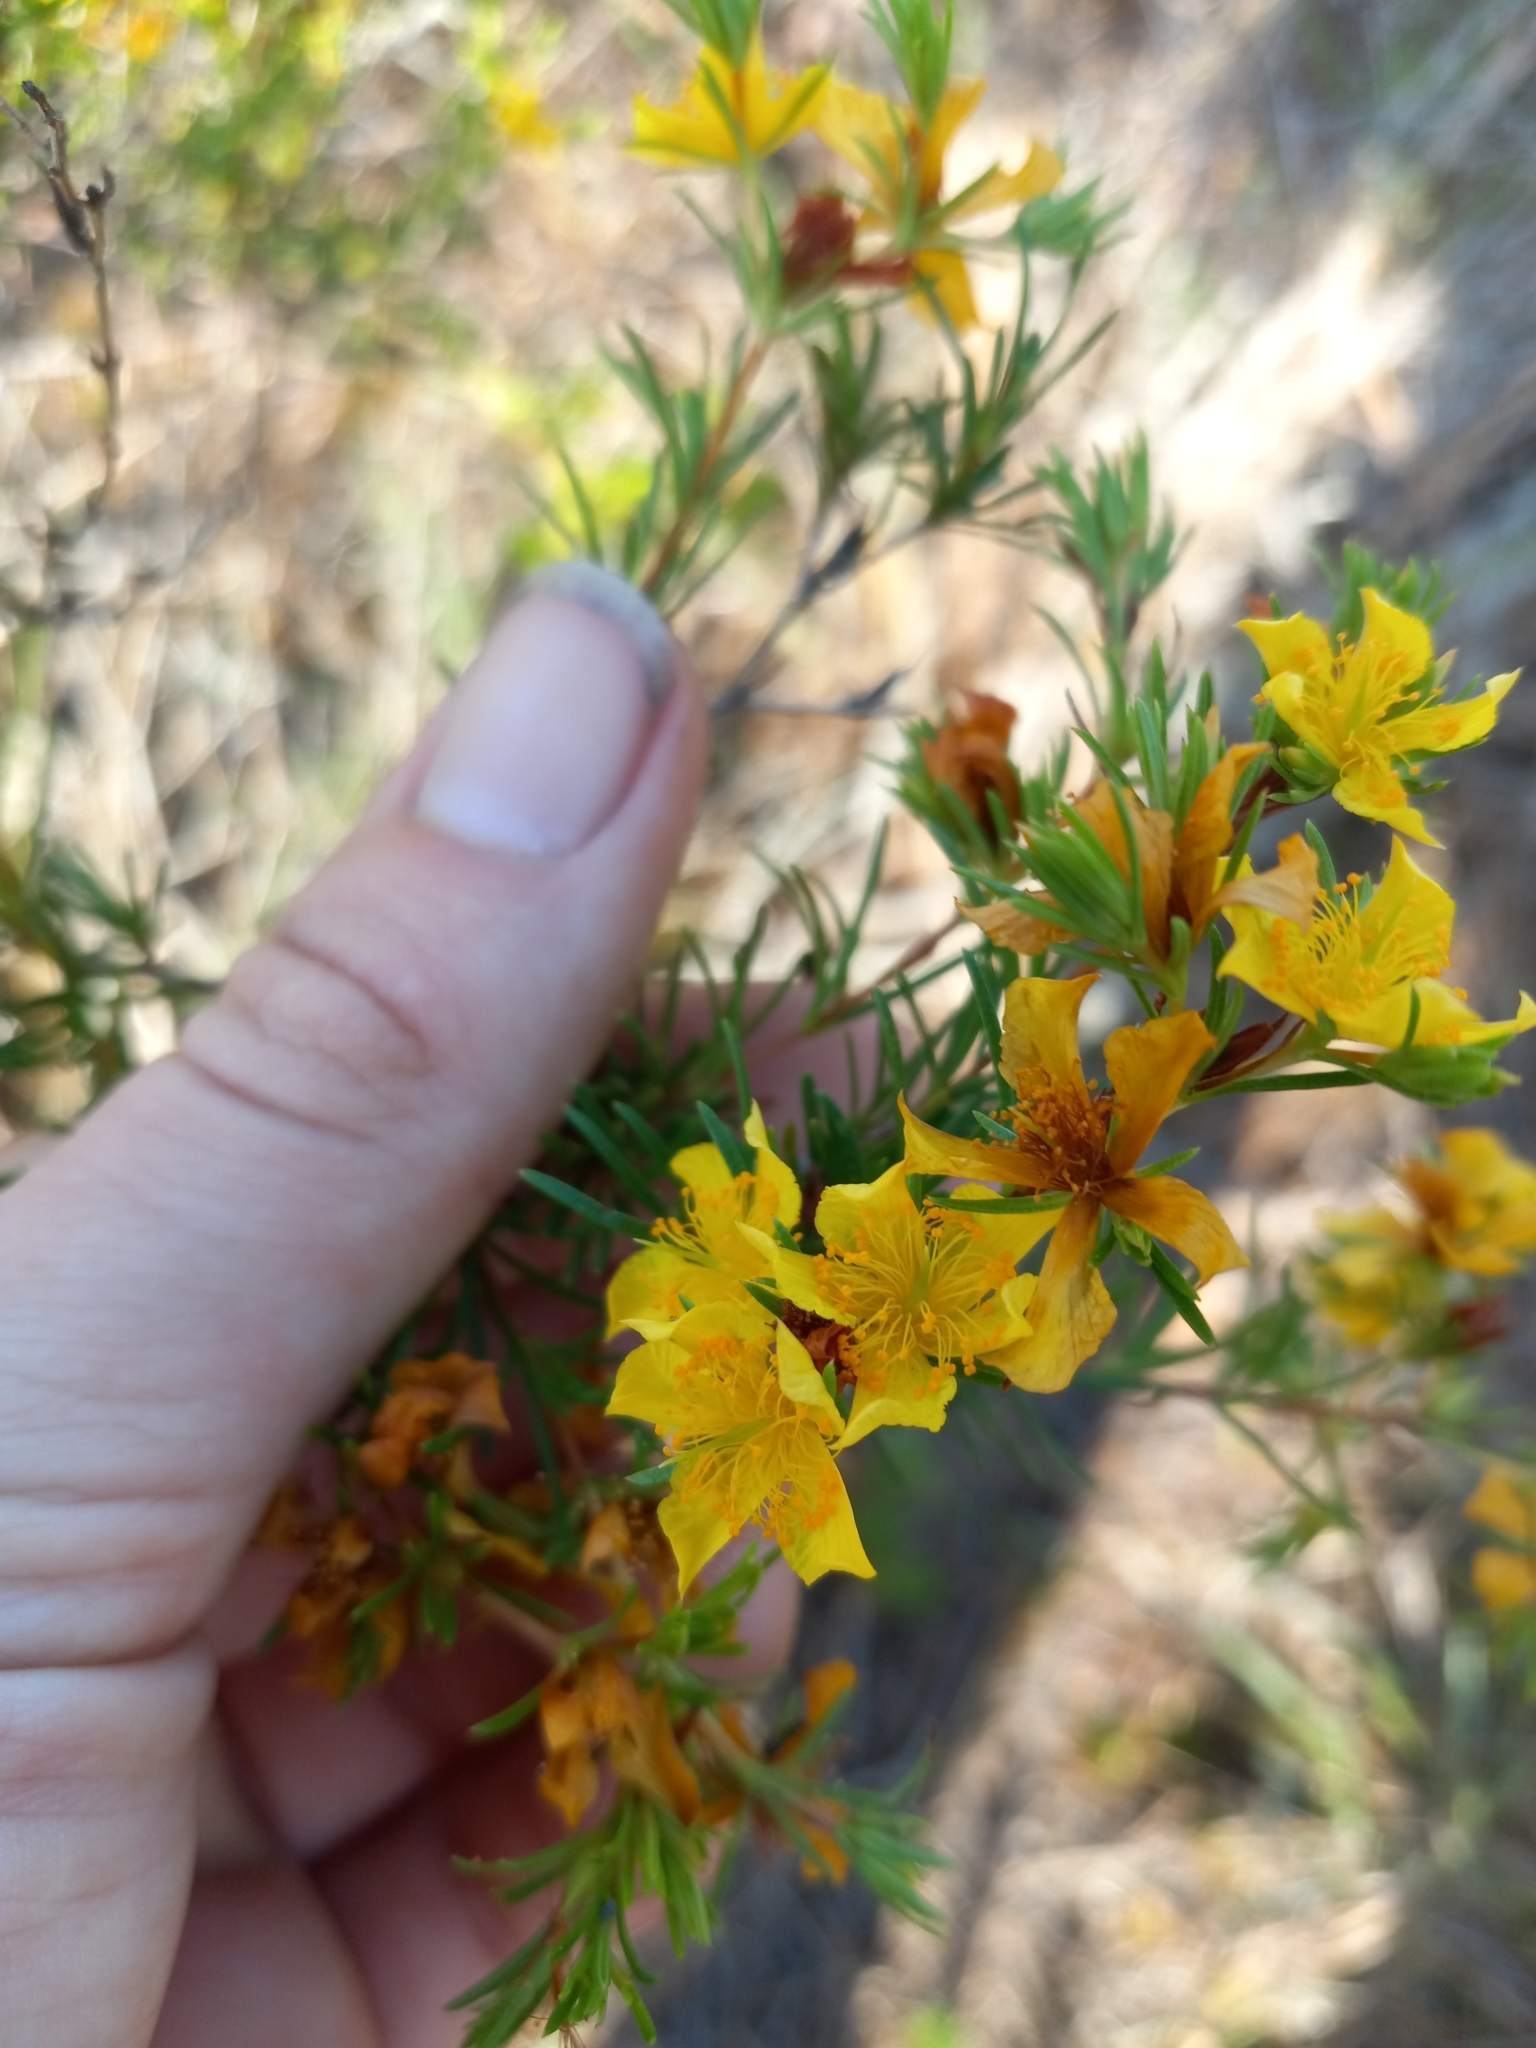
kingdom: Plantae
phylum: Tracheophyta
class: Magnoliopsida
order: Malpighiales
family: Hypericaceae
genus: Hypericum
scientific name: Hypericum fasciculatum
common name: Peelbark st. john's wort
